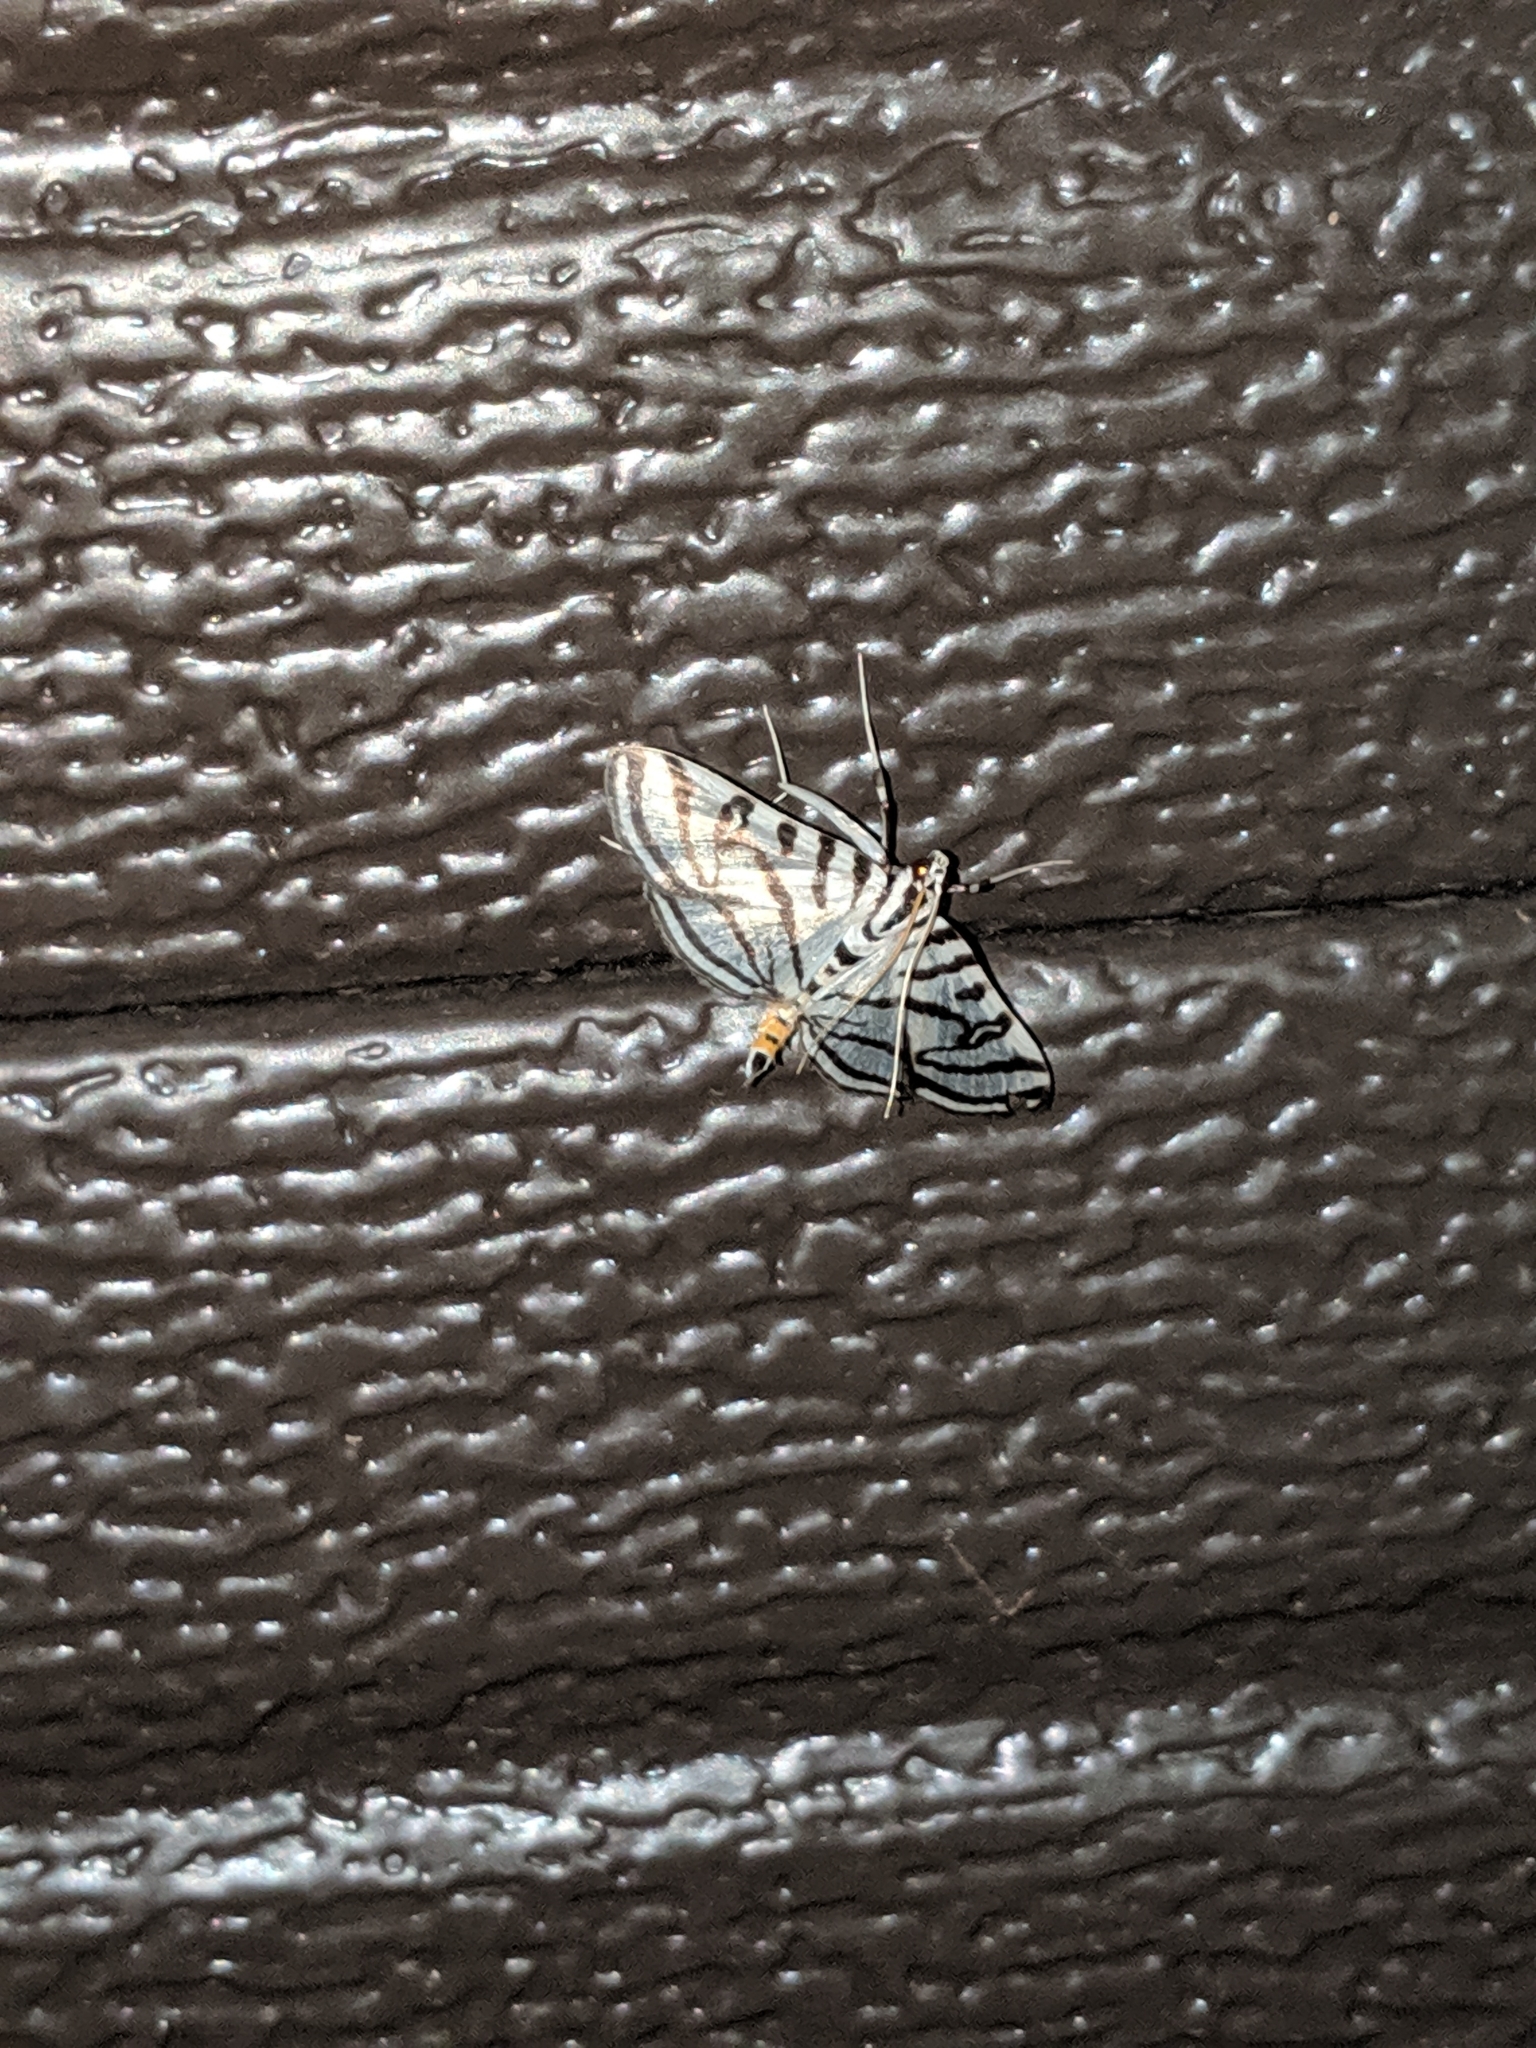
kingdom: Animalia
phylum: Arthropoda
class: Insecta
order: Lepidoptera
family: Crambidae
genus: Conchylodes
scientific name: Conchylodes ovulalis
